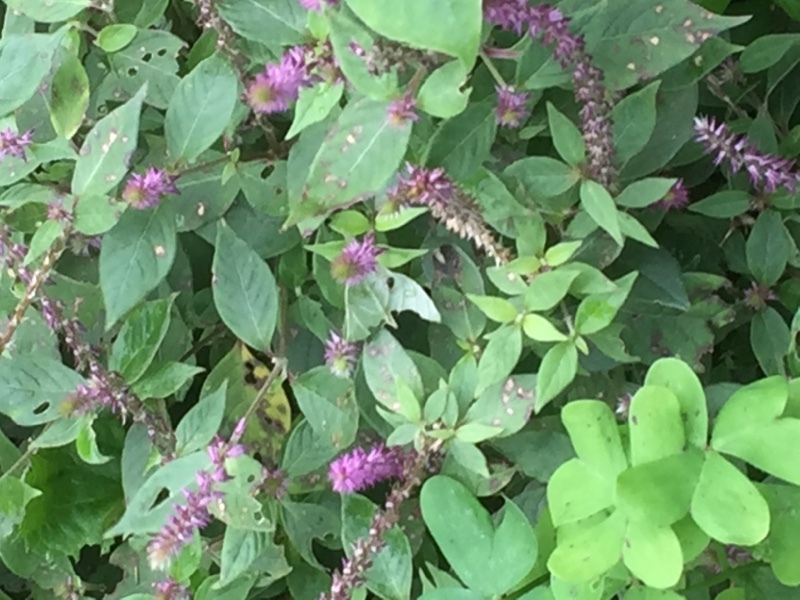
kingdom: Plantae
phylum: Tracheophyta
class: Magnoliopsida
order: Caryophyllales
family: Amaranthaceae
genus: Achyranthes
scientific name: Achyranthes aspera
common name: Devil's horsewhip
